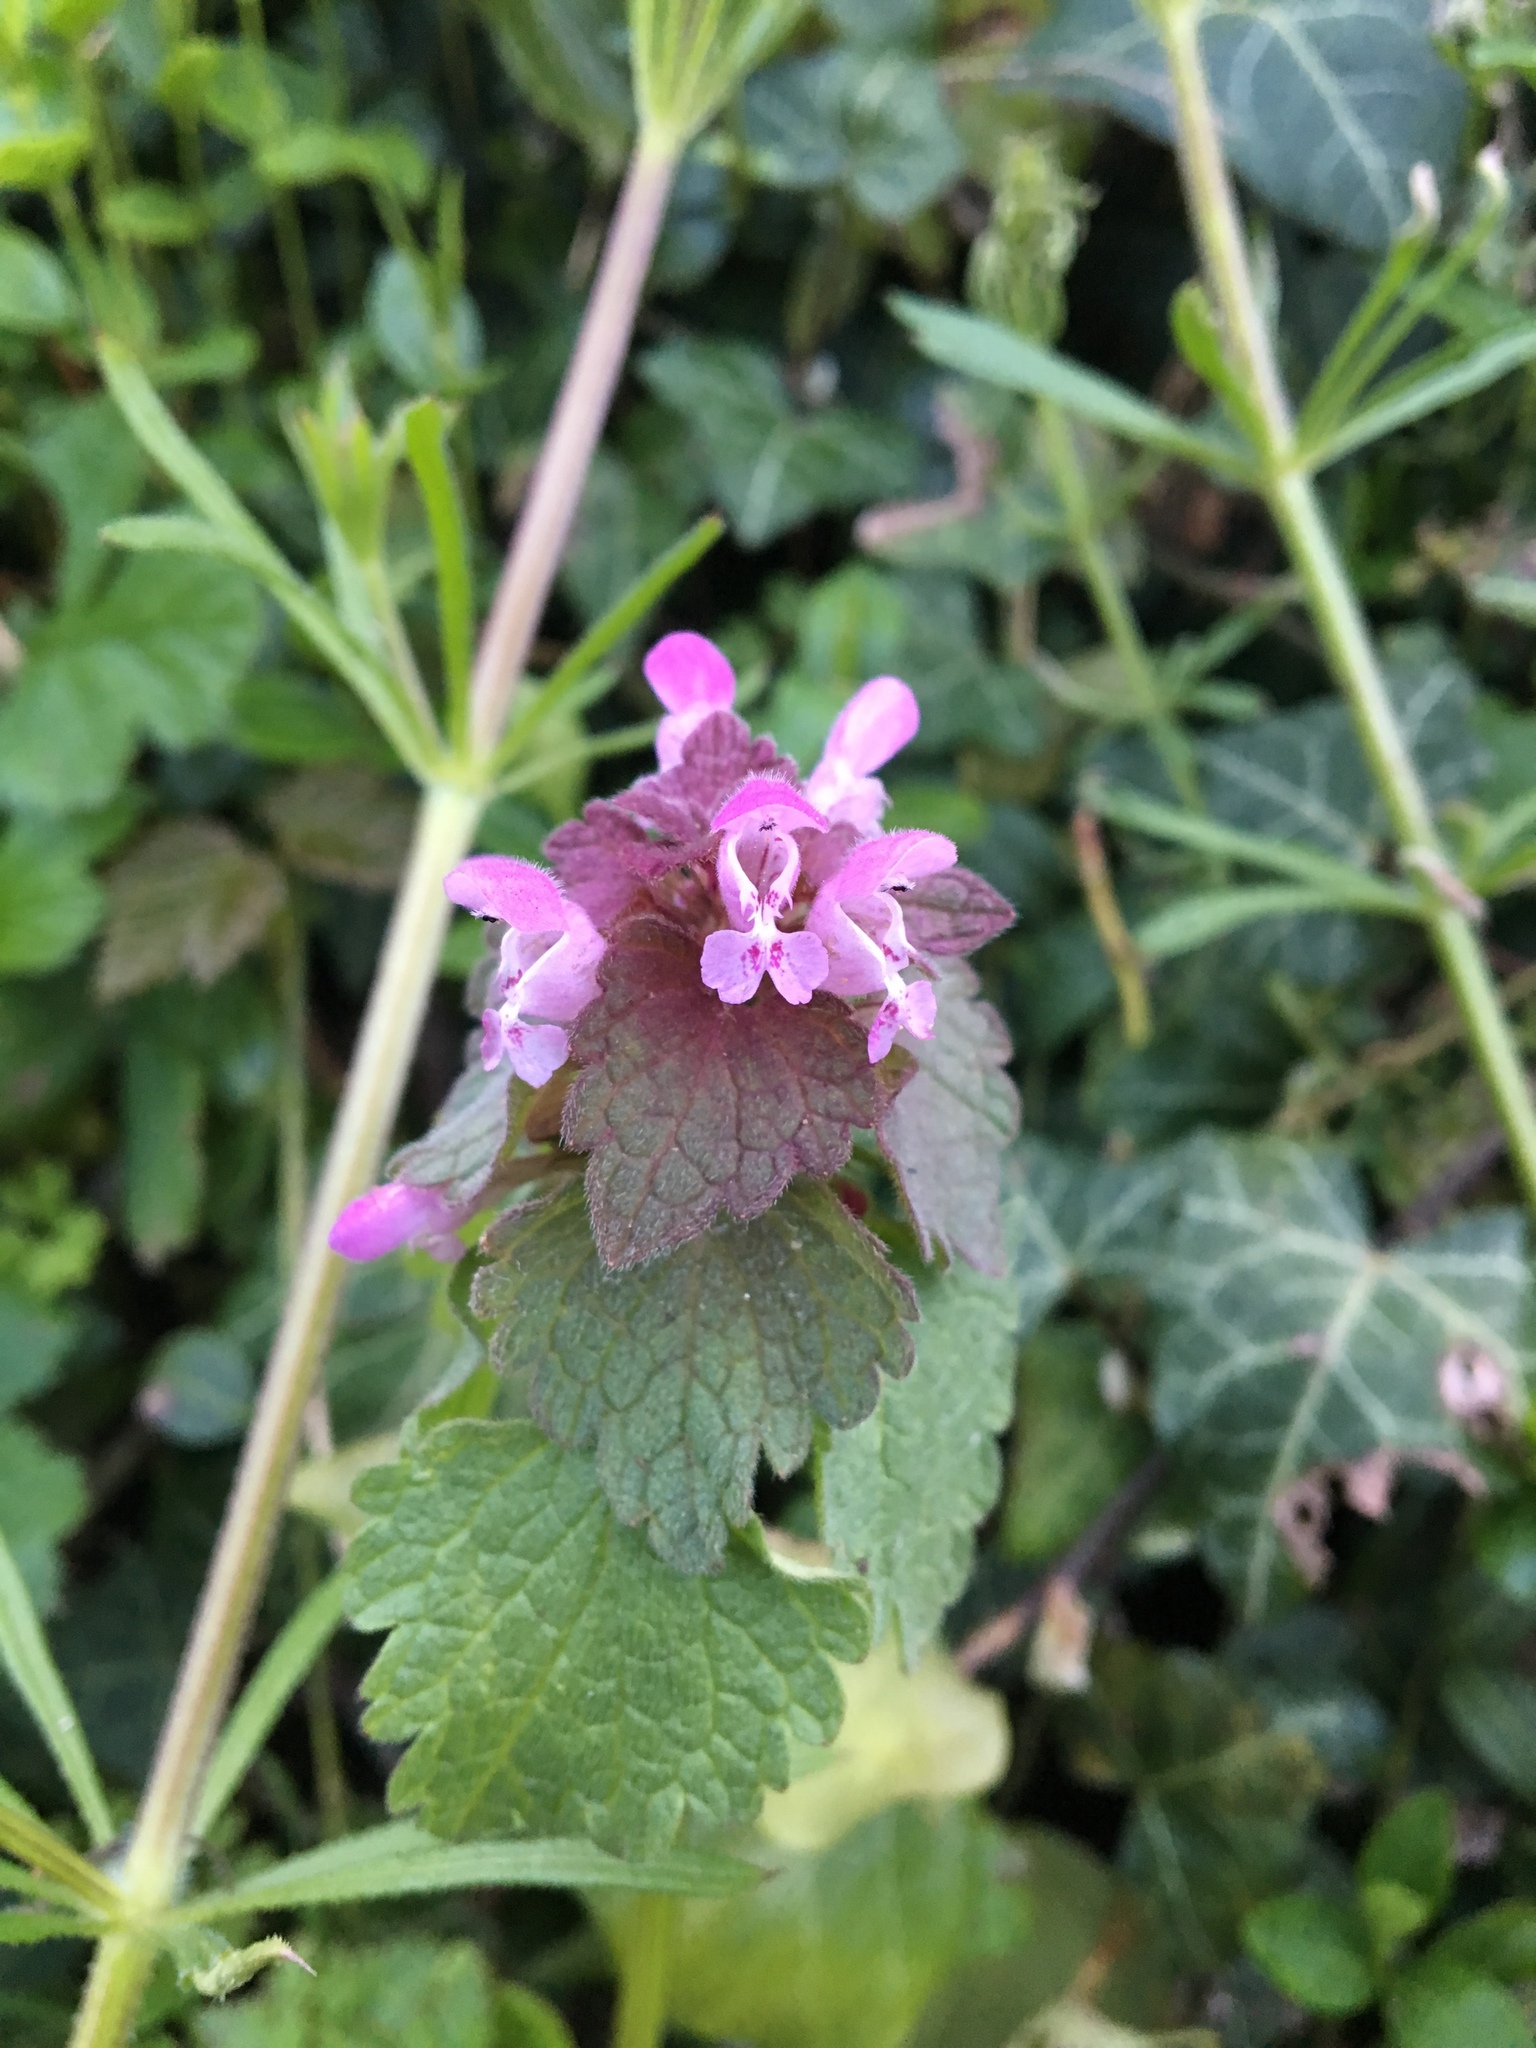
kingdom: Plantae
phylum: Tracheophyta
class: Magnoliopsida
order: Lamiales
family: Lamiaceae
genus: Lamium
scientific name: Lamium purpureum
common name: Red dead-nettle
